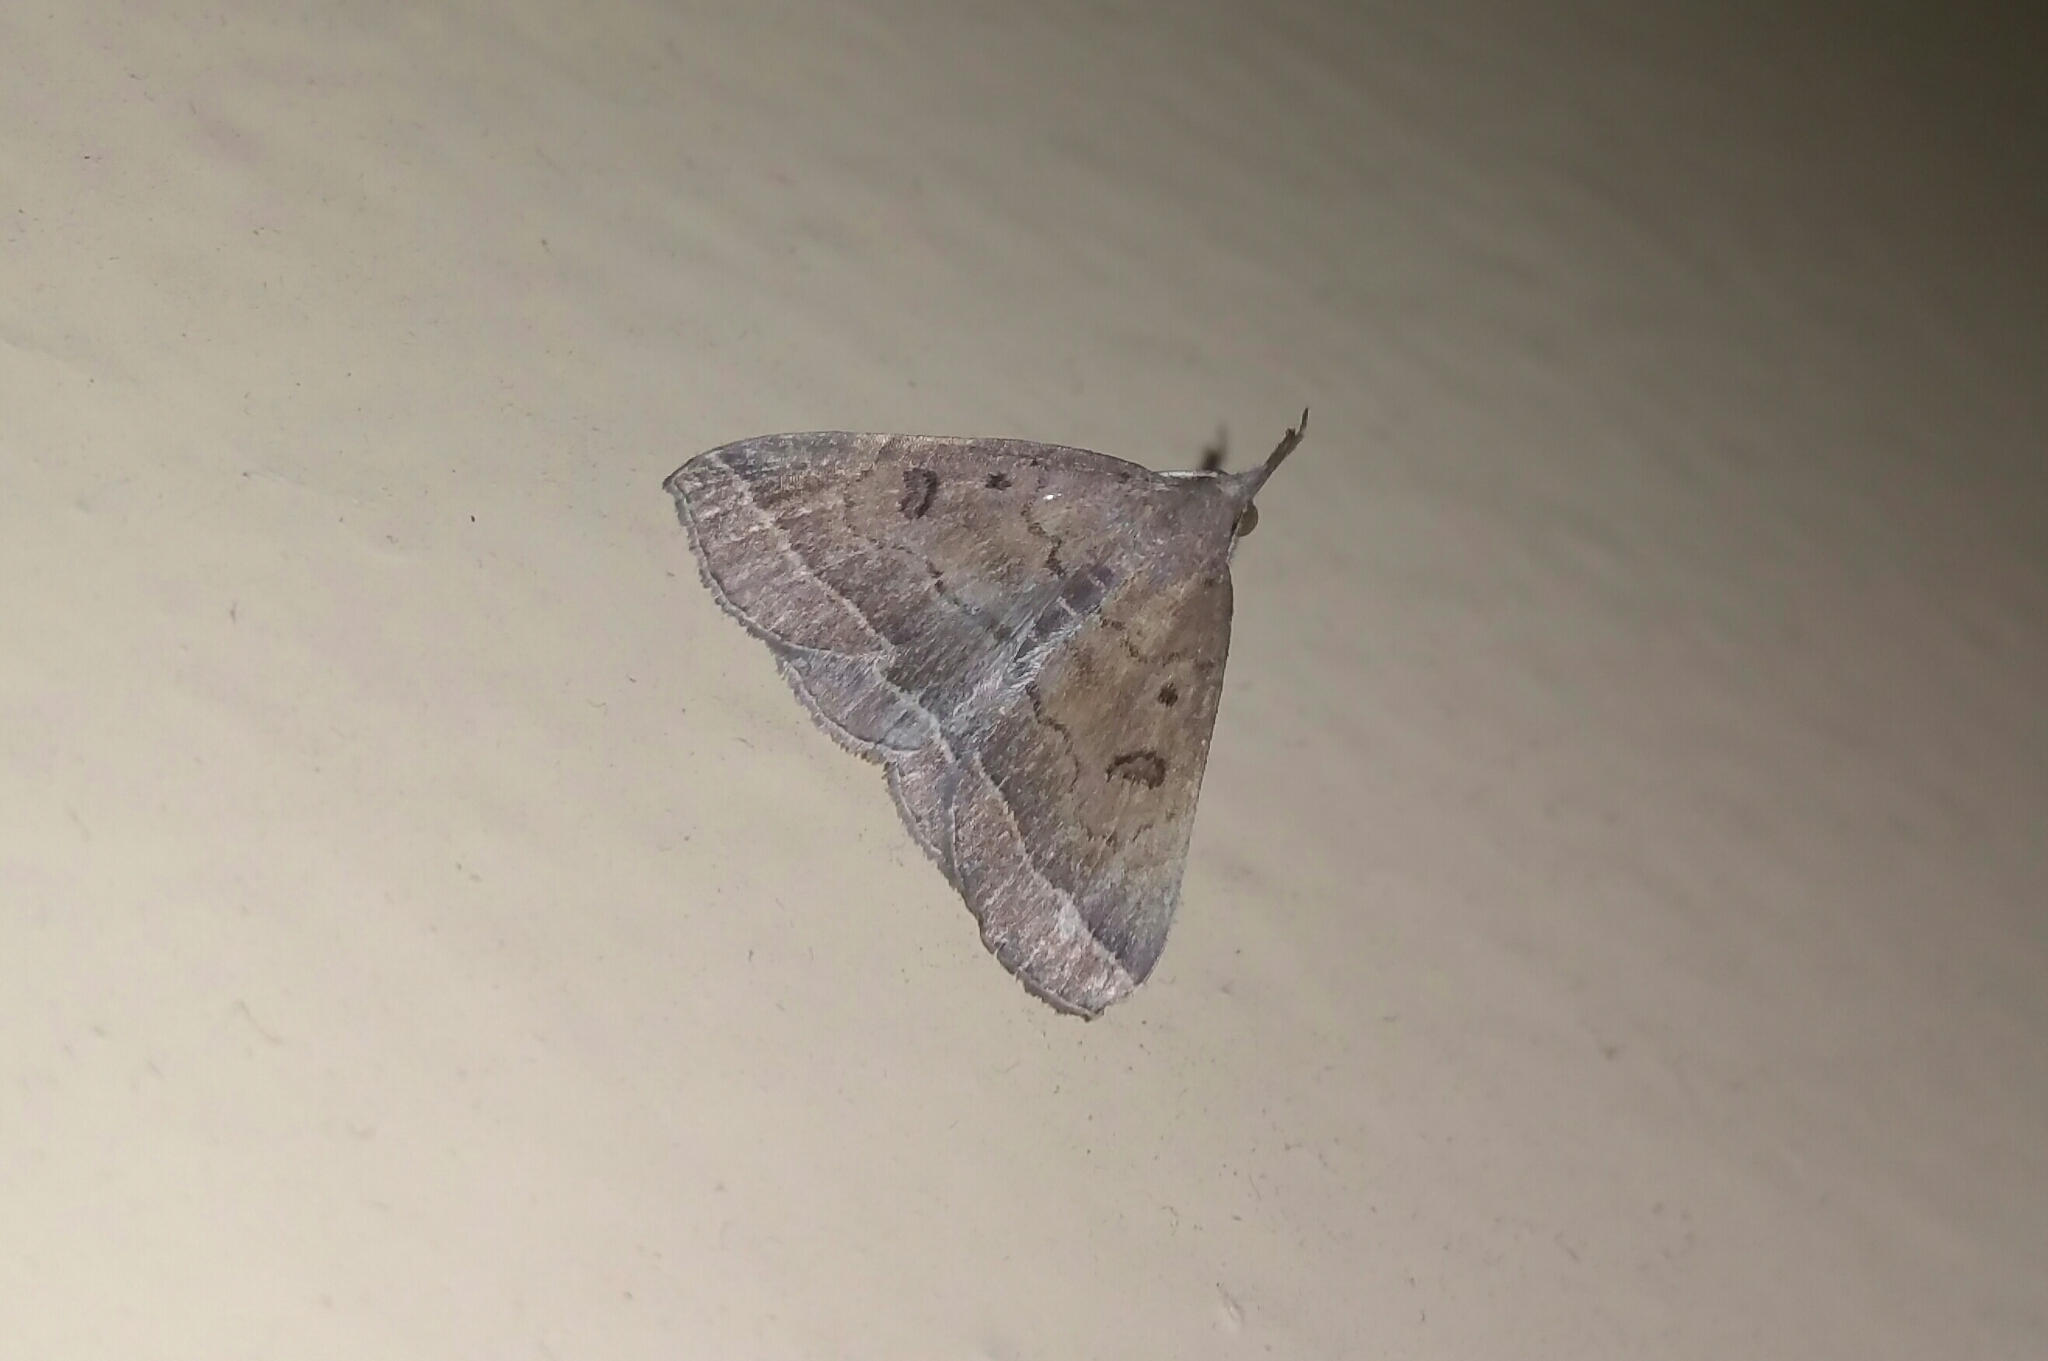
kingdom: Animalia
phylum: Arthropoda
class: Insecta
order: Lepidoptera
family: Erebidae
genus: Pechipogo
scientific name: Pechipogo plumigeralis
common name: Plumed fan-foot
